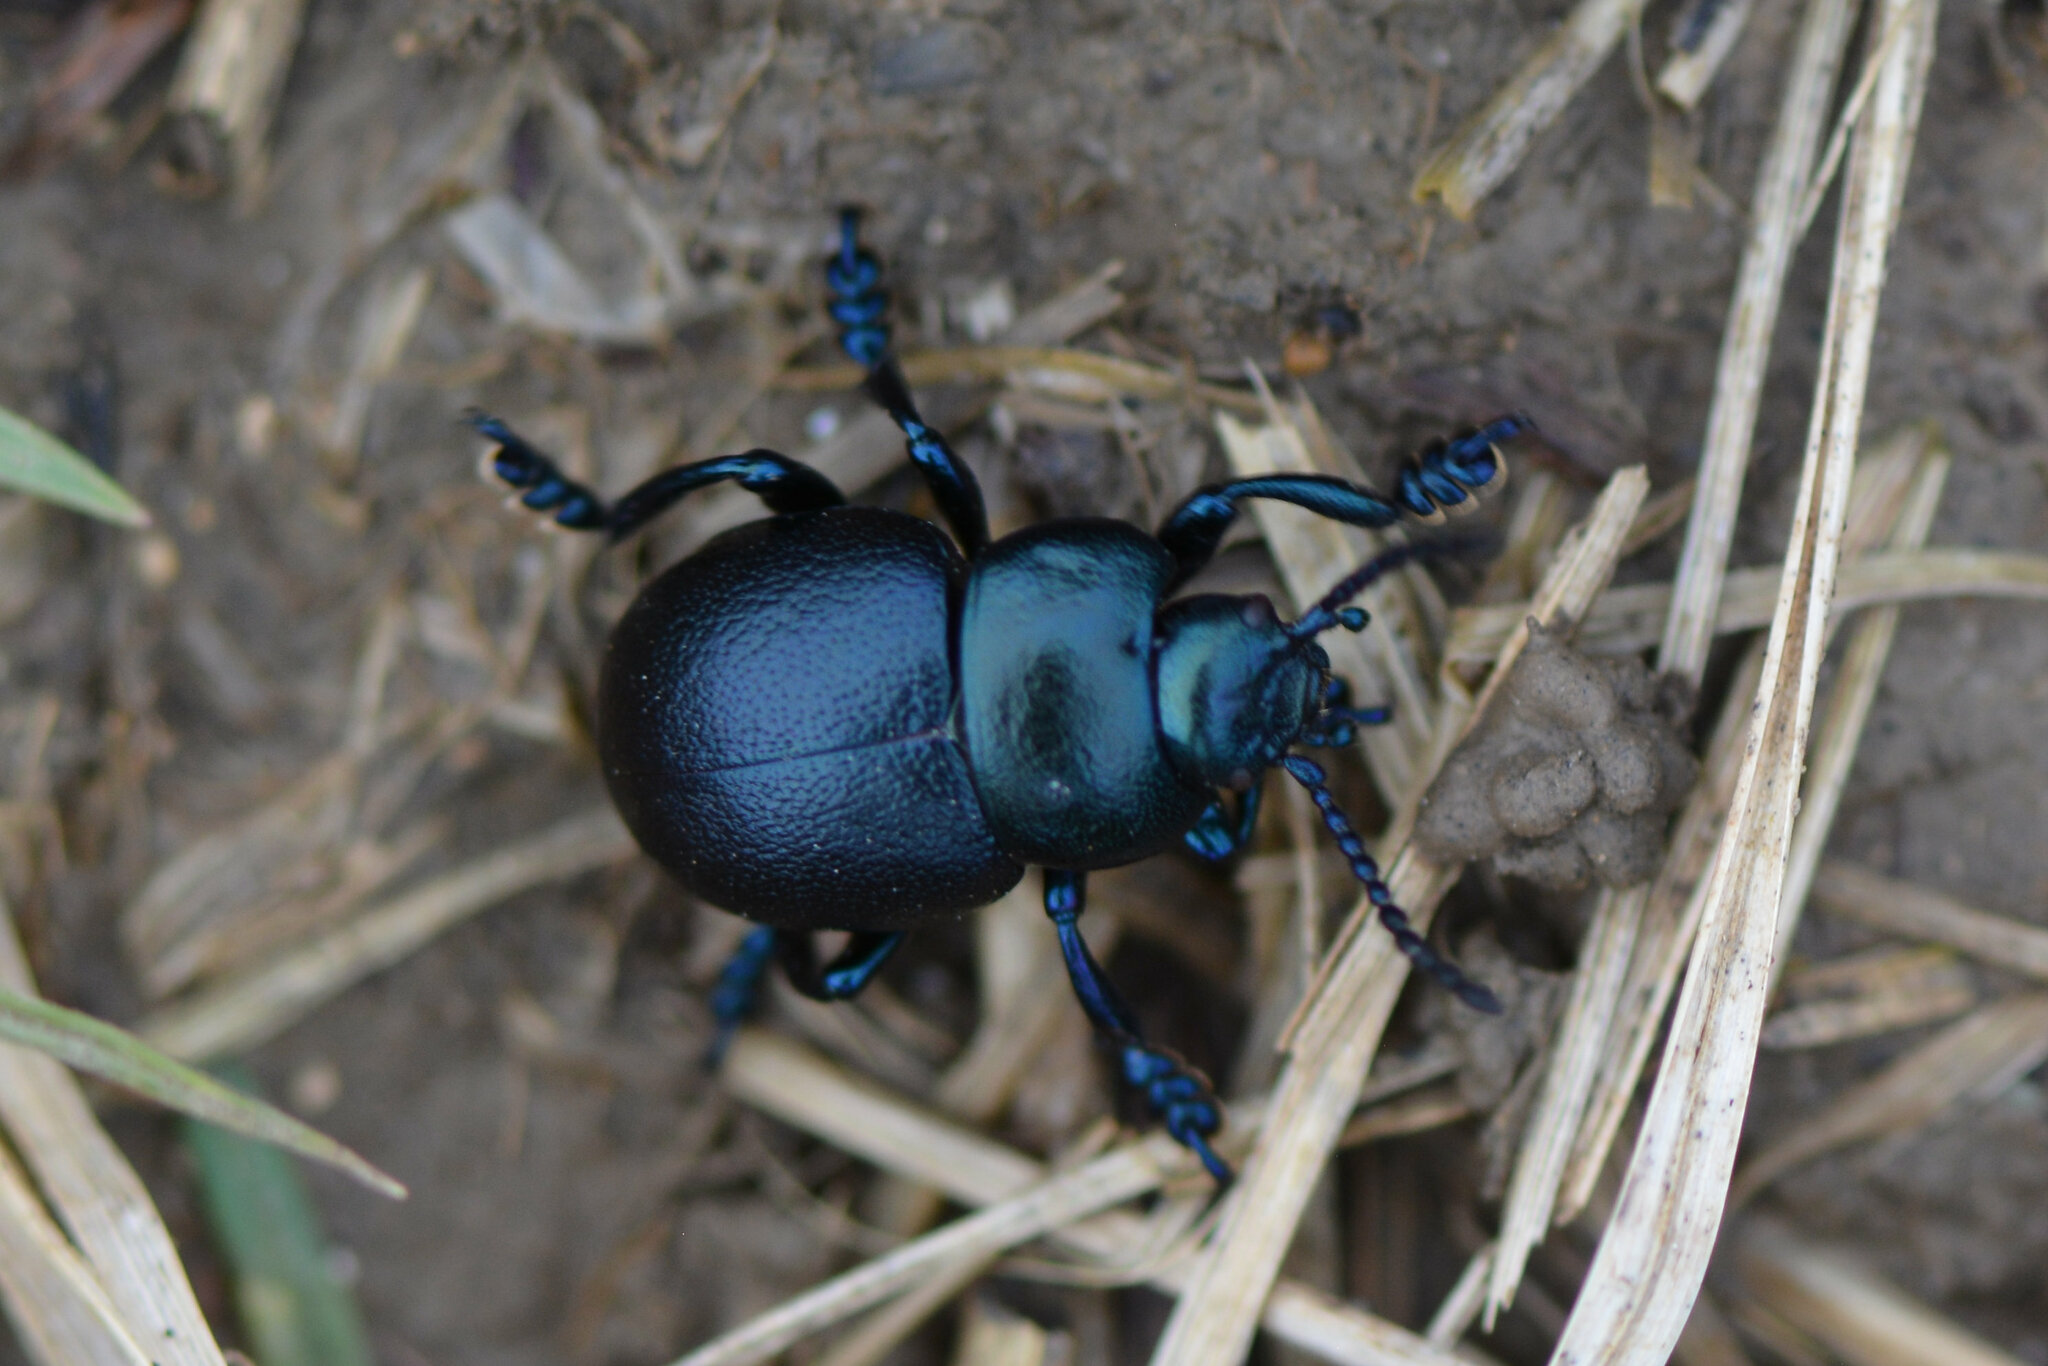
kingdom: Animalia
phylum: Arthropoda
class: Insecta
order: Coleoptera
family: Chrysomelidae
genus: Timarcha
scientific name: Timarcha goettingensis
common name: Small bloody-nosed beetle
